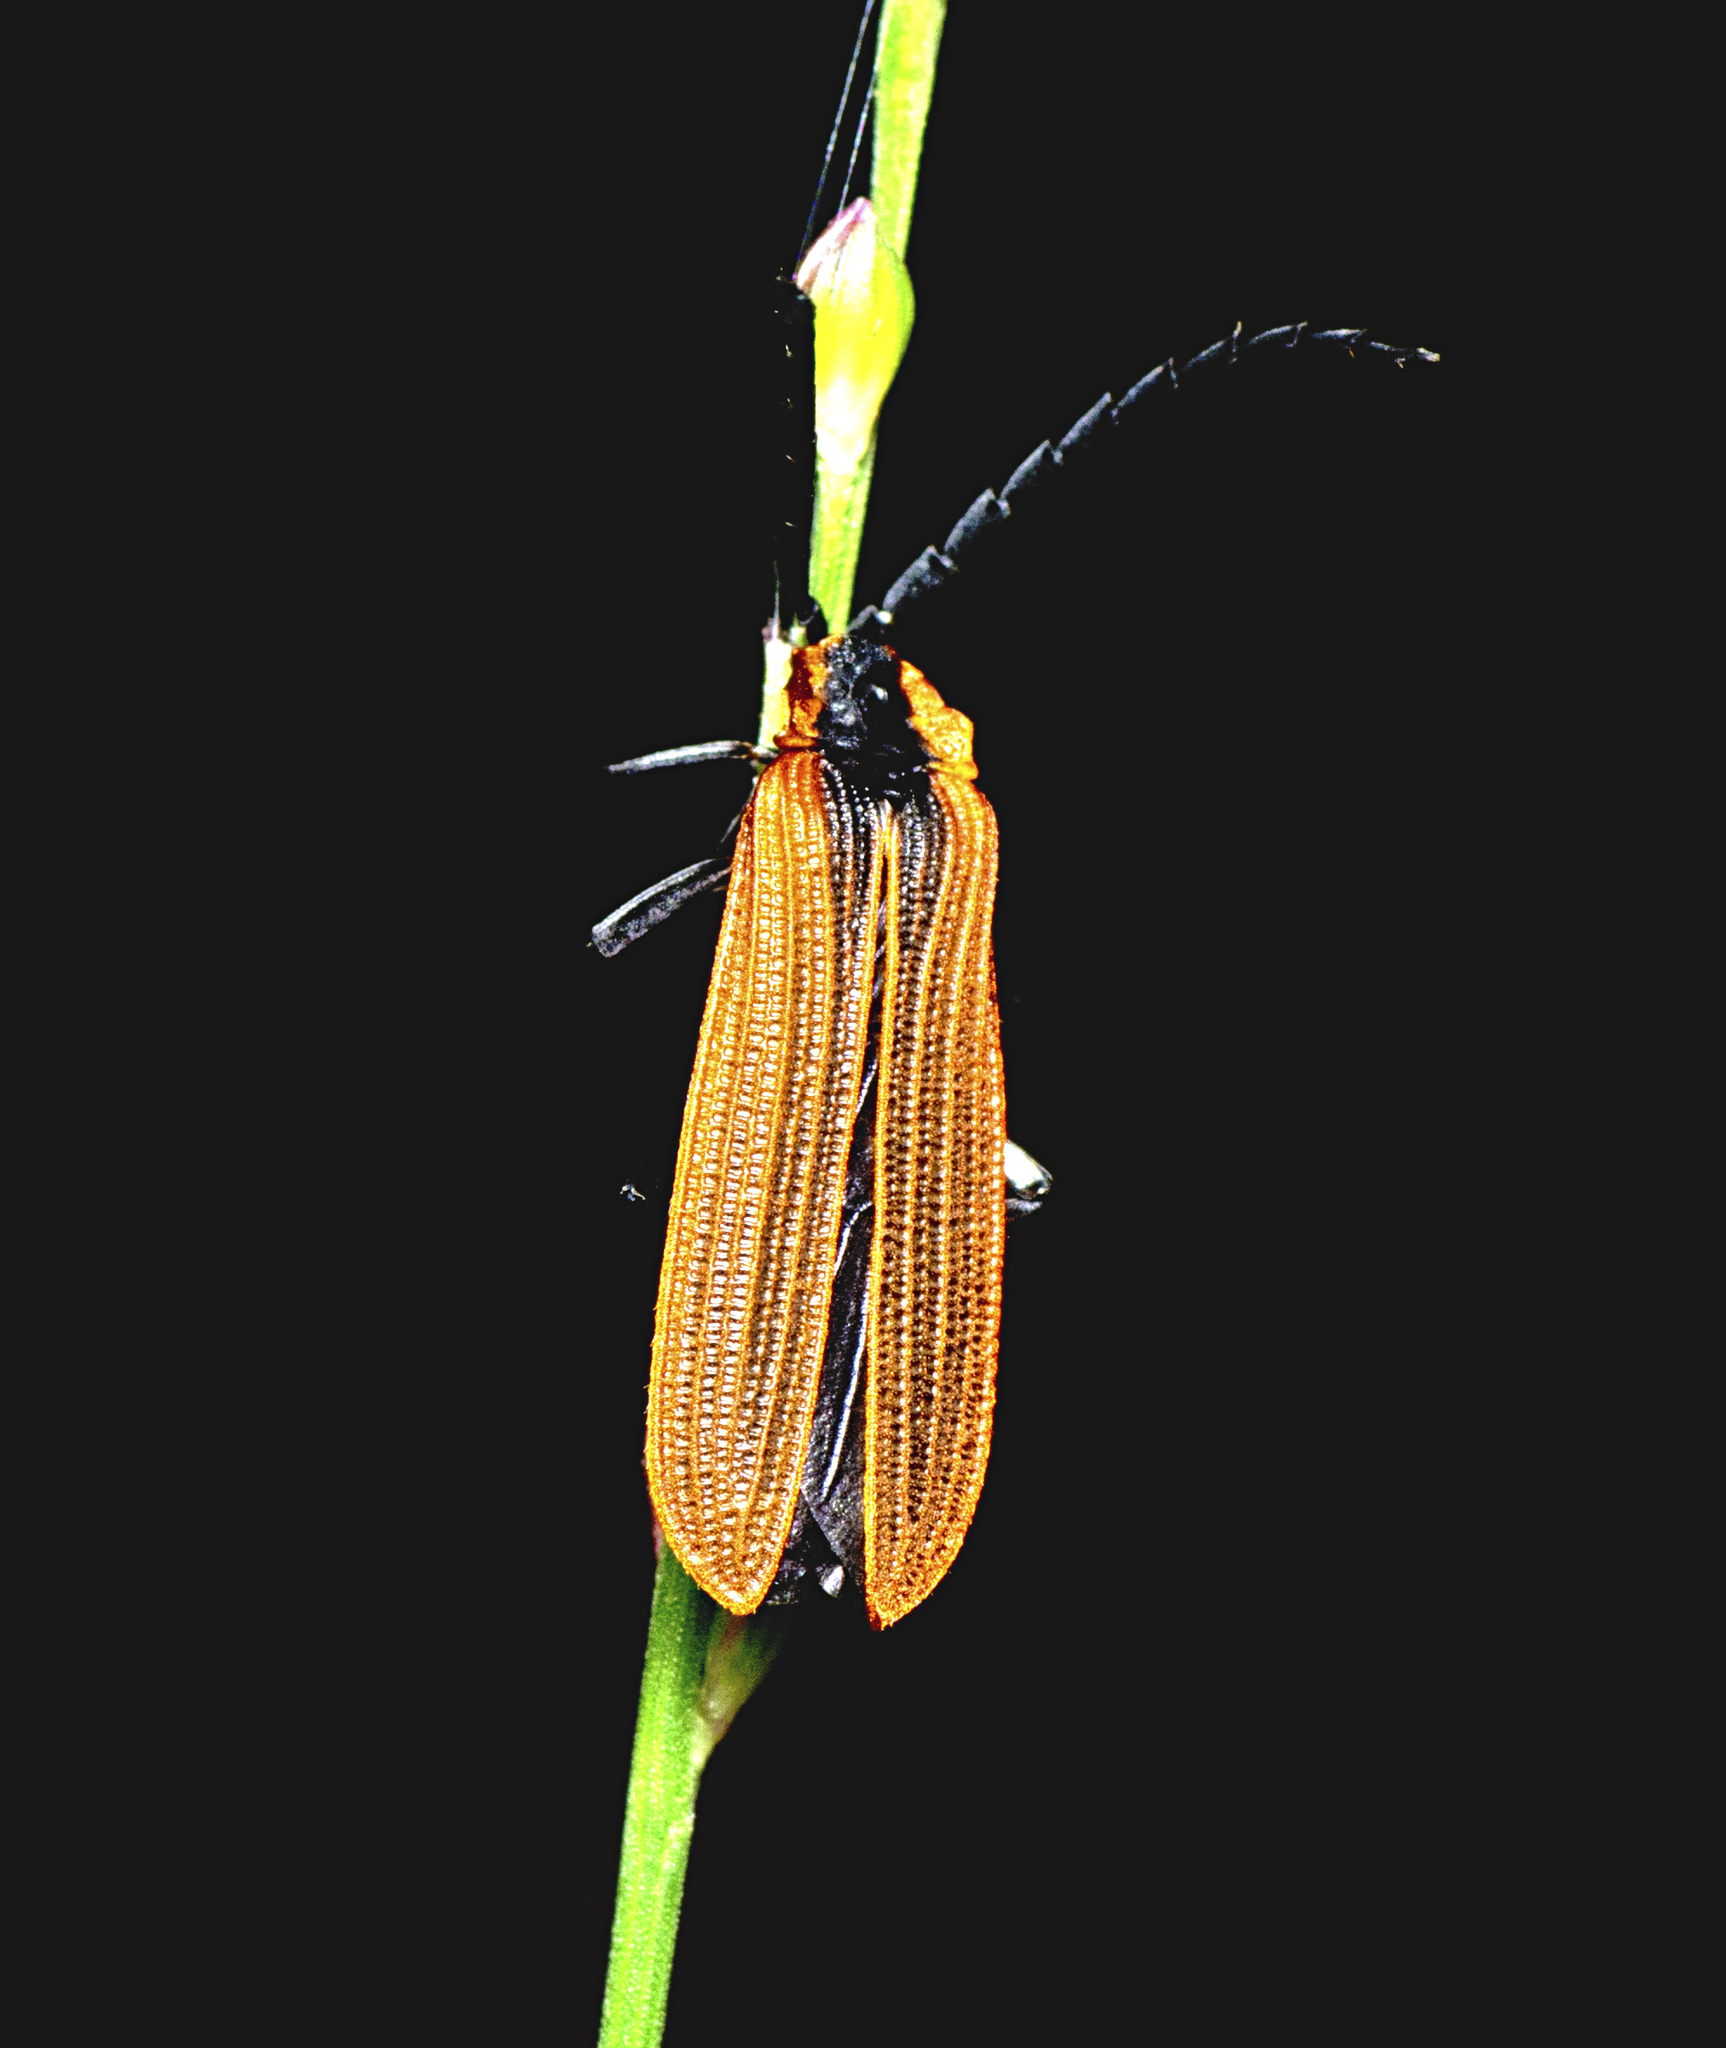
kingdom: Animalia
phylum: Arthropoda
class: Insecta
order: Coleoptera
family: Lycidae
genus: Trichalus
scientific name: Trichalus
